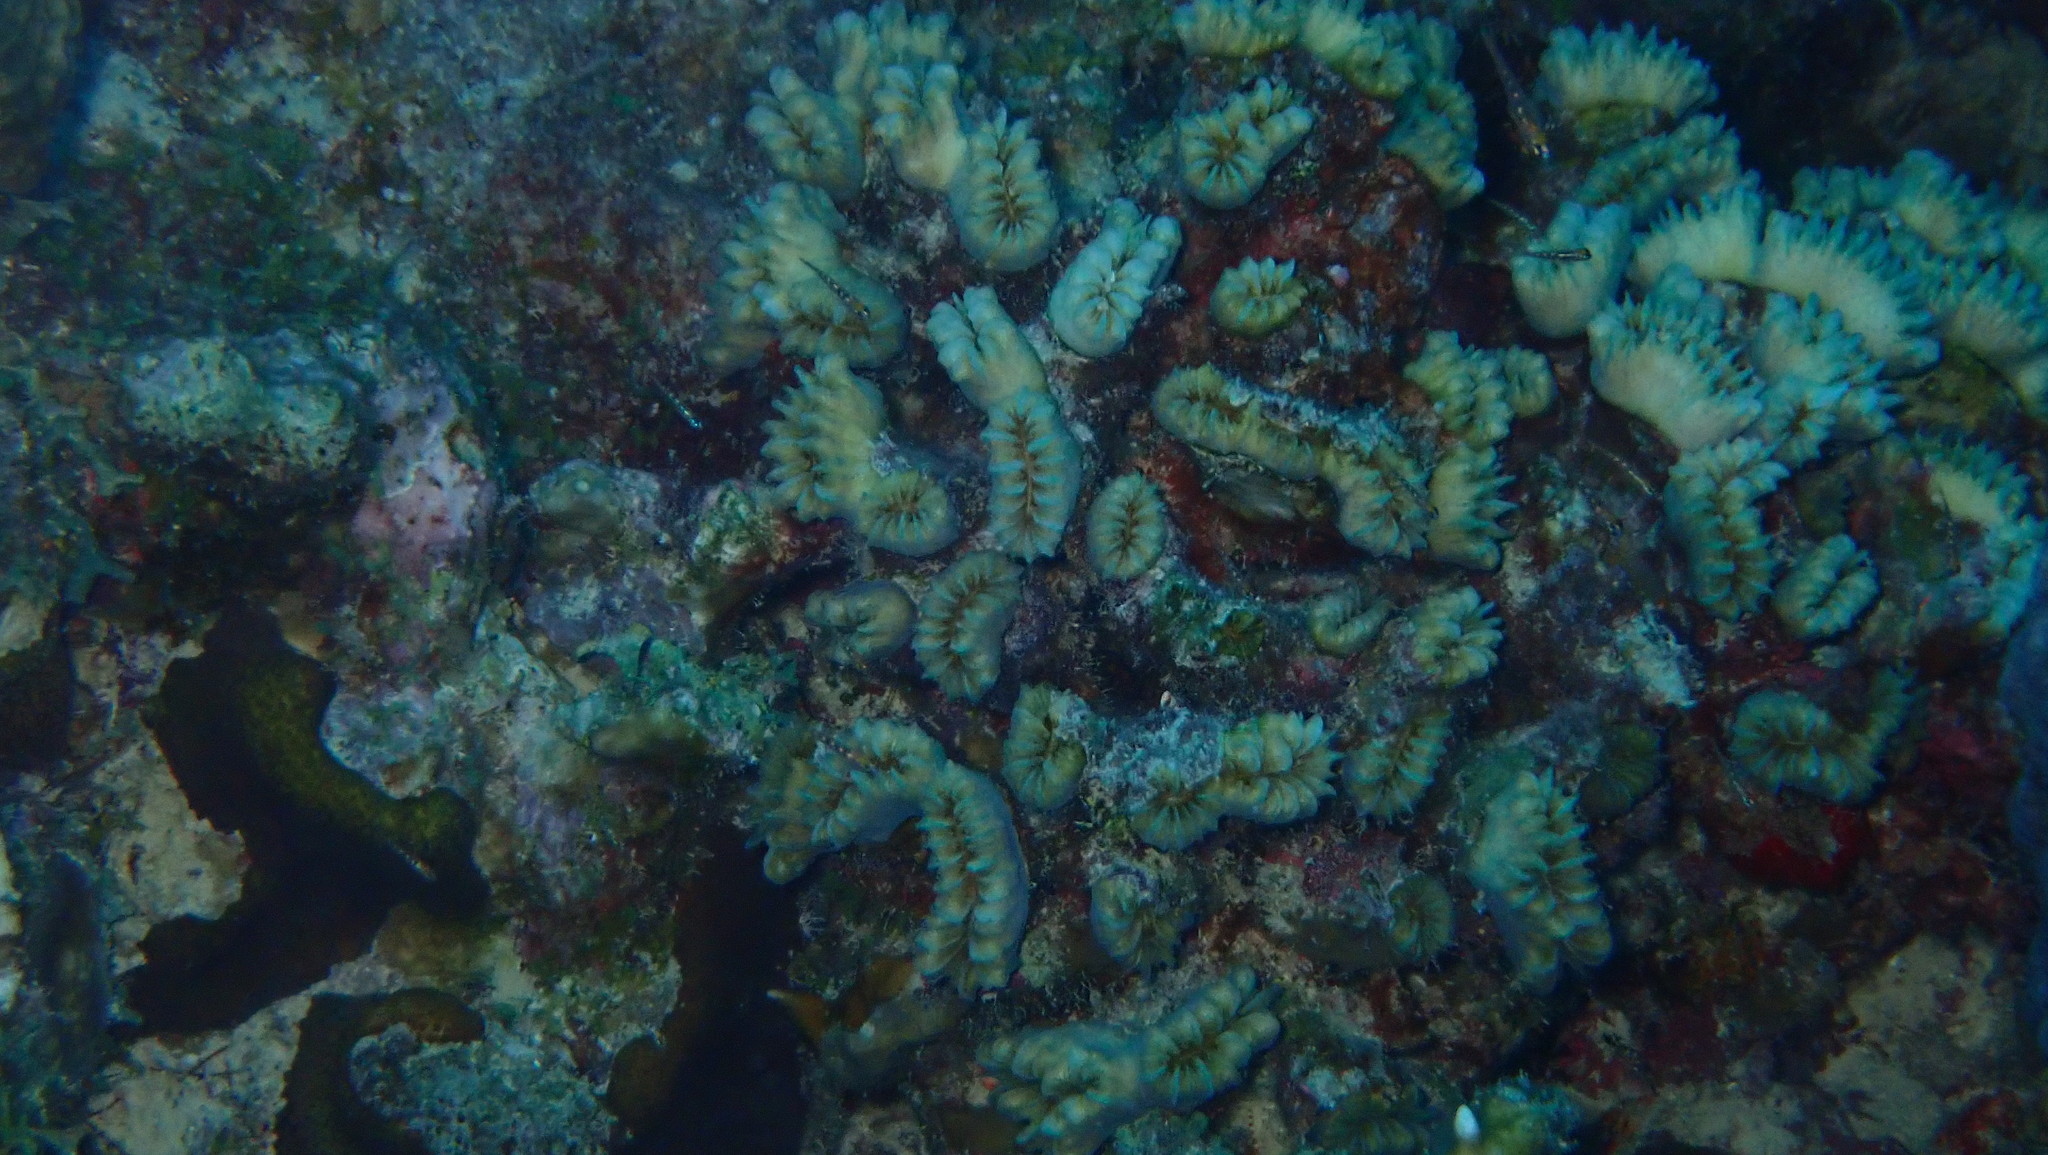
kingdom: Animalia
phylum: Cnidaria
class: Anthozoa
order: Scleractinia
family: Meandrinidae
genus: Eusmilia
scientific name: Eusmilia fastigiata
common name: Smooth flower coral
